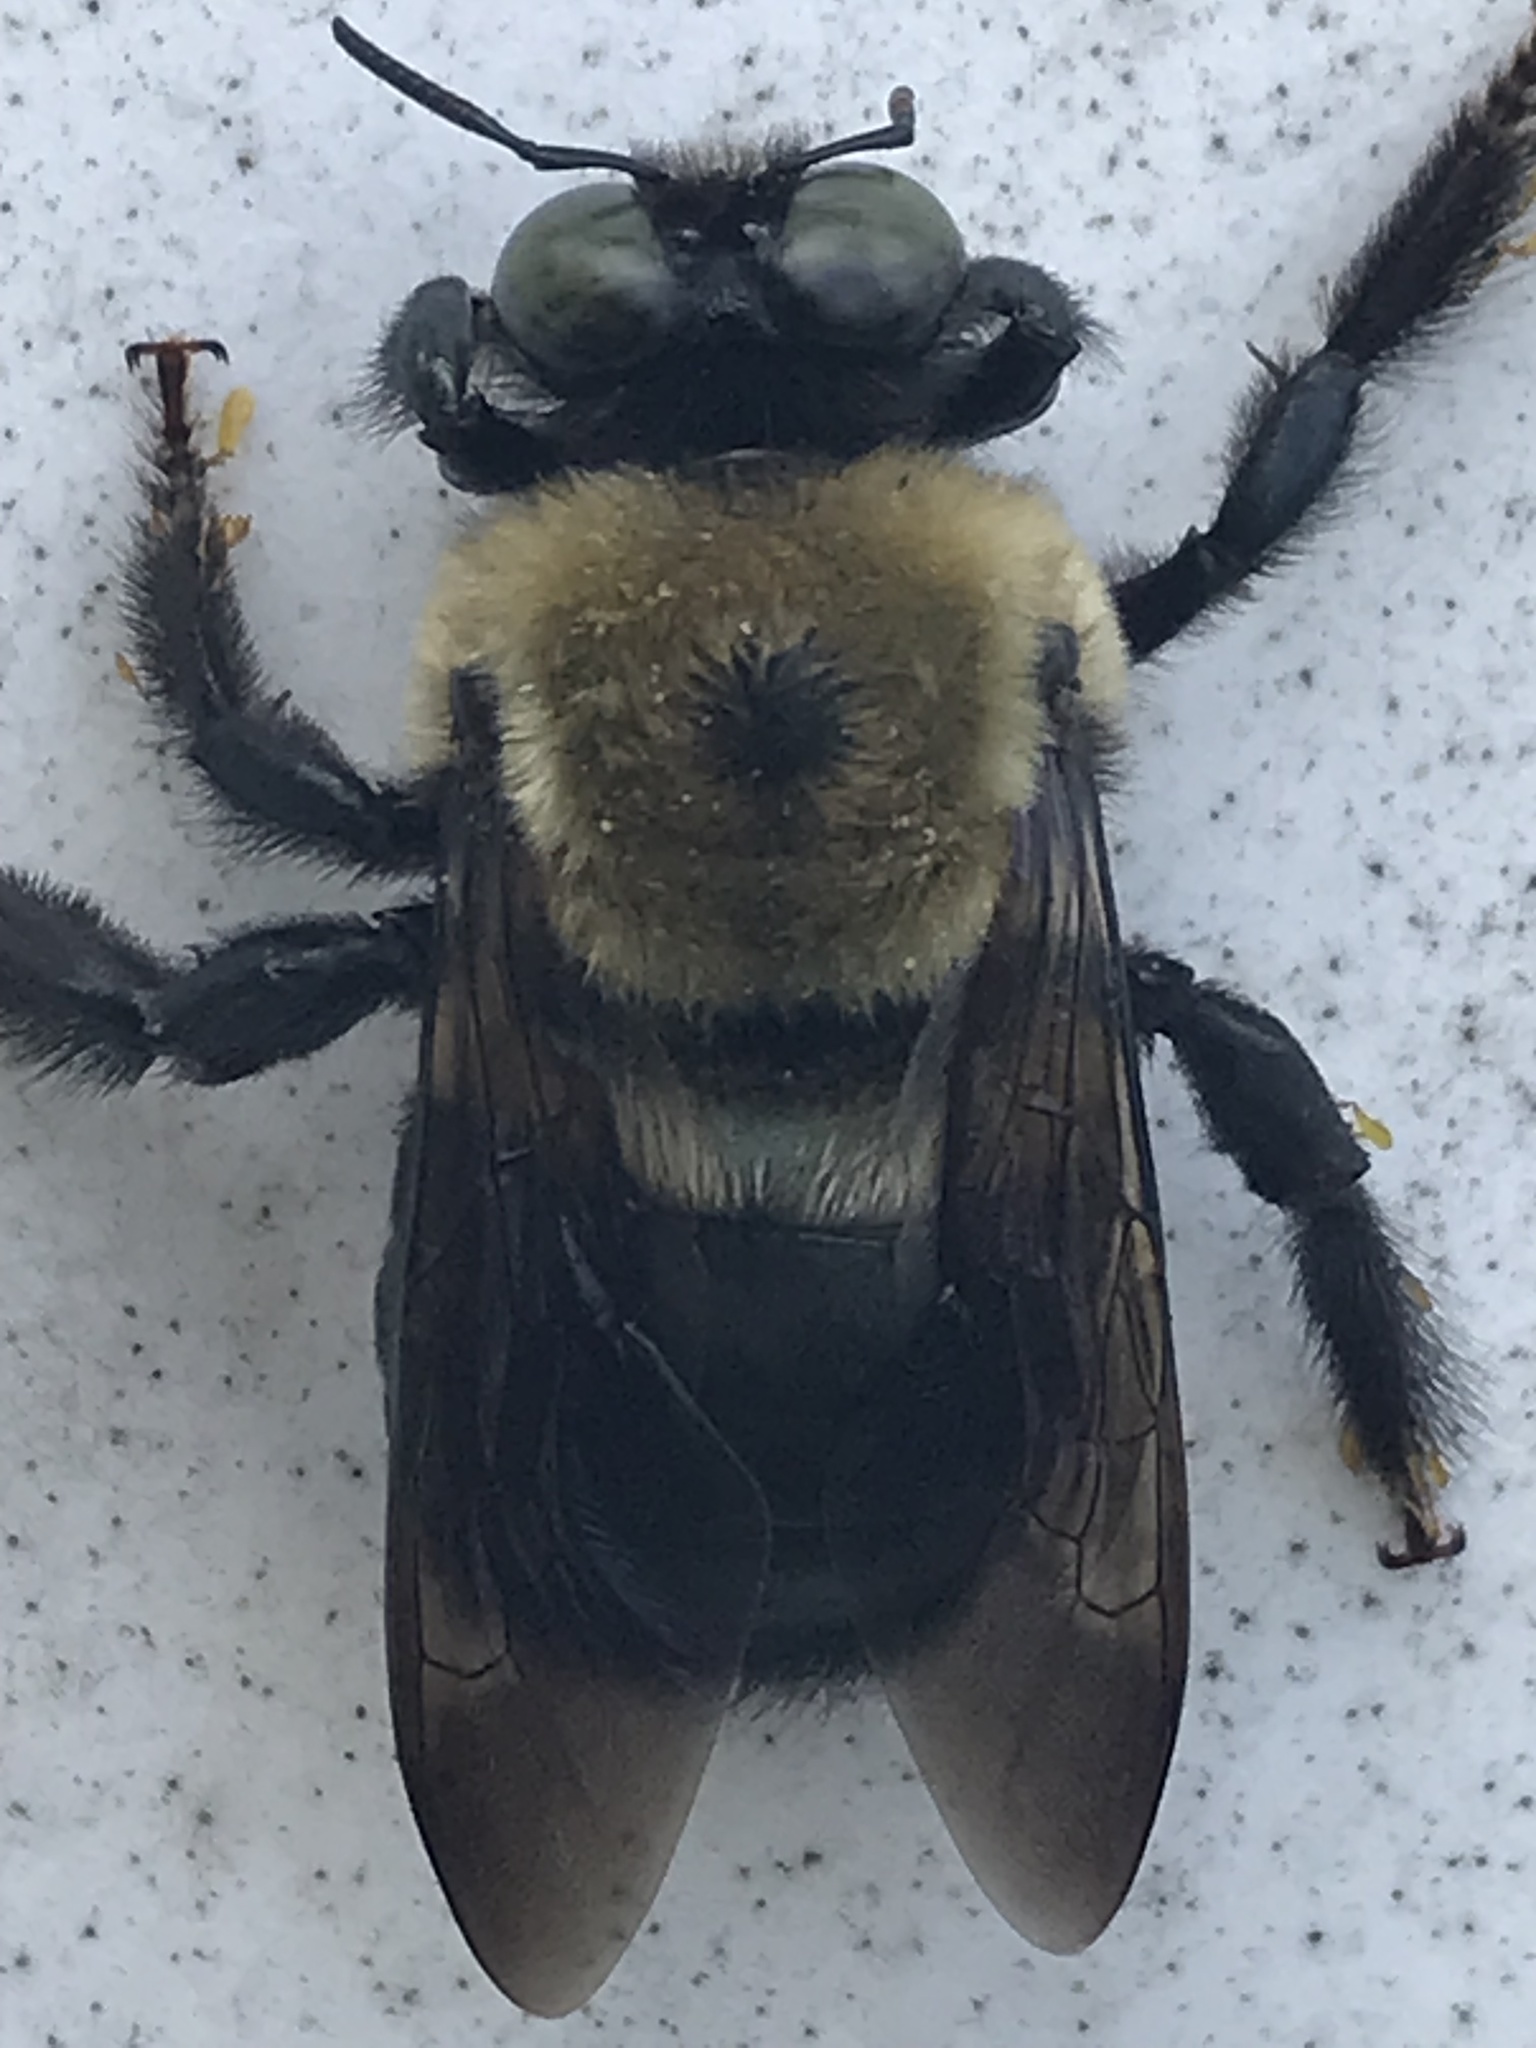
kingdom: Animalia
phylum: Arthropoda
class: Insecta
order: Hymenoptera
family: Apidae
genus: Xylocopa
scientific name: Xylocopa virginica
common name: Carpenter bee
